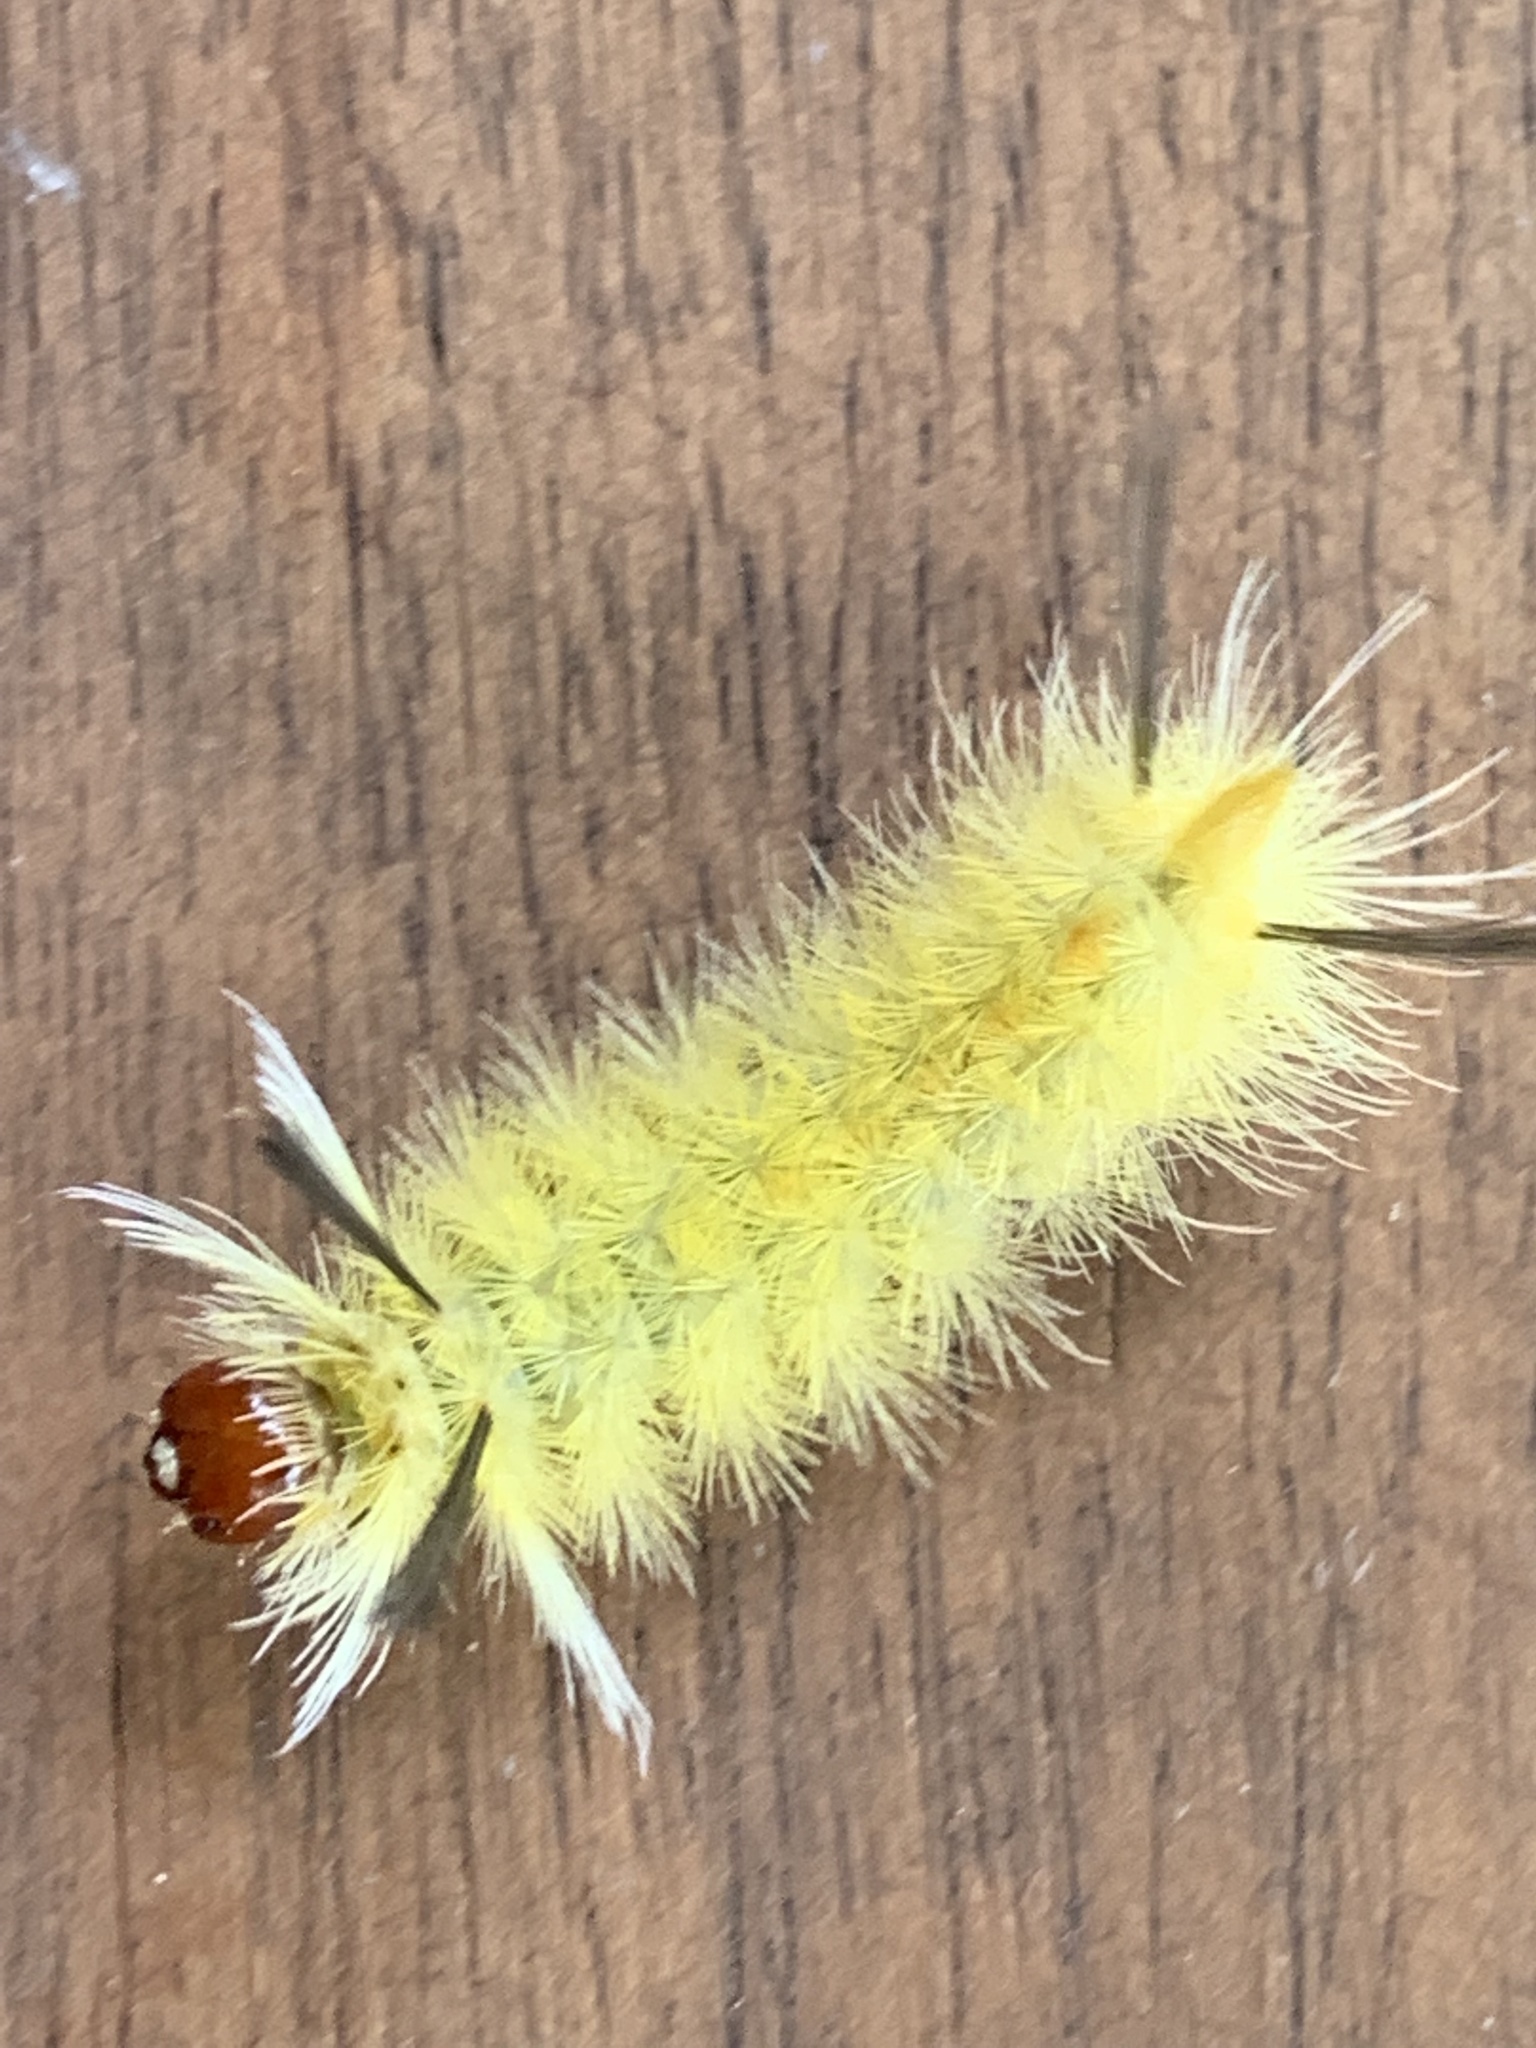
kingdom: Animalia
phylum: Arthropoda
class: Insecta
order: Lepidoptera
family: Erebidae
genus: Halysidota
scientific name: Halysidota tessellaris
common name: Banded tussock moth
